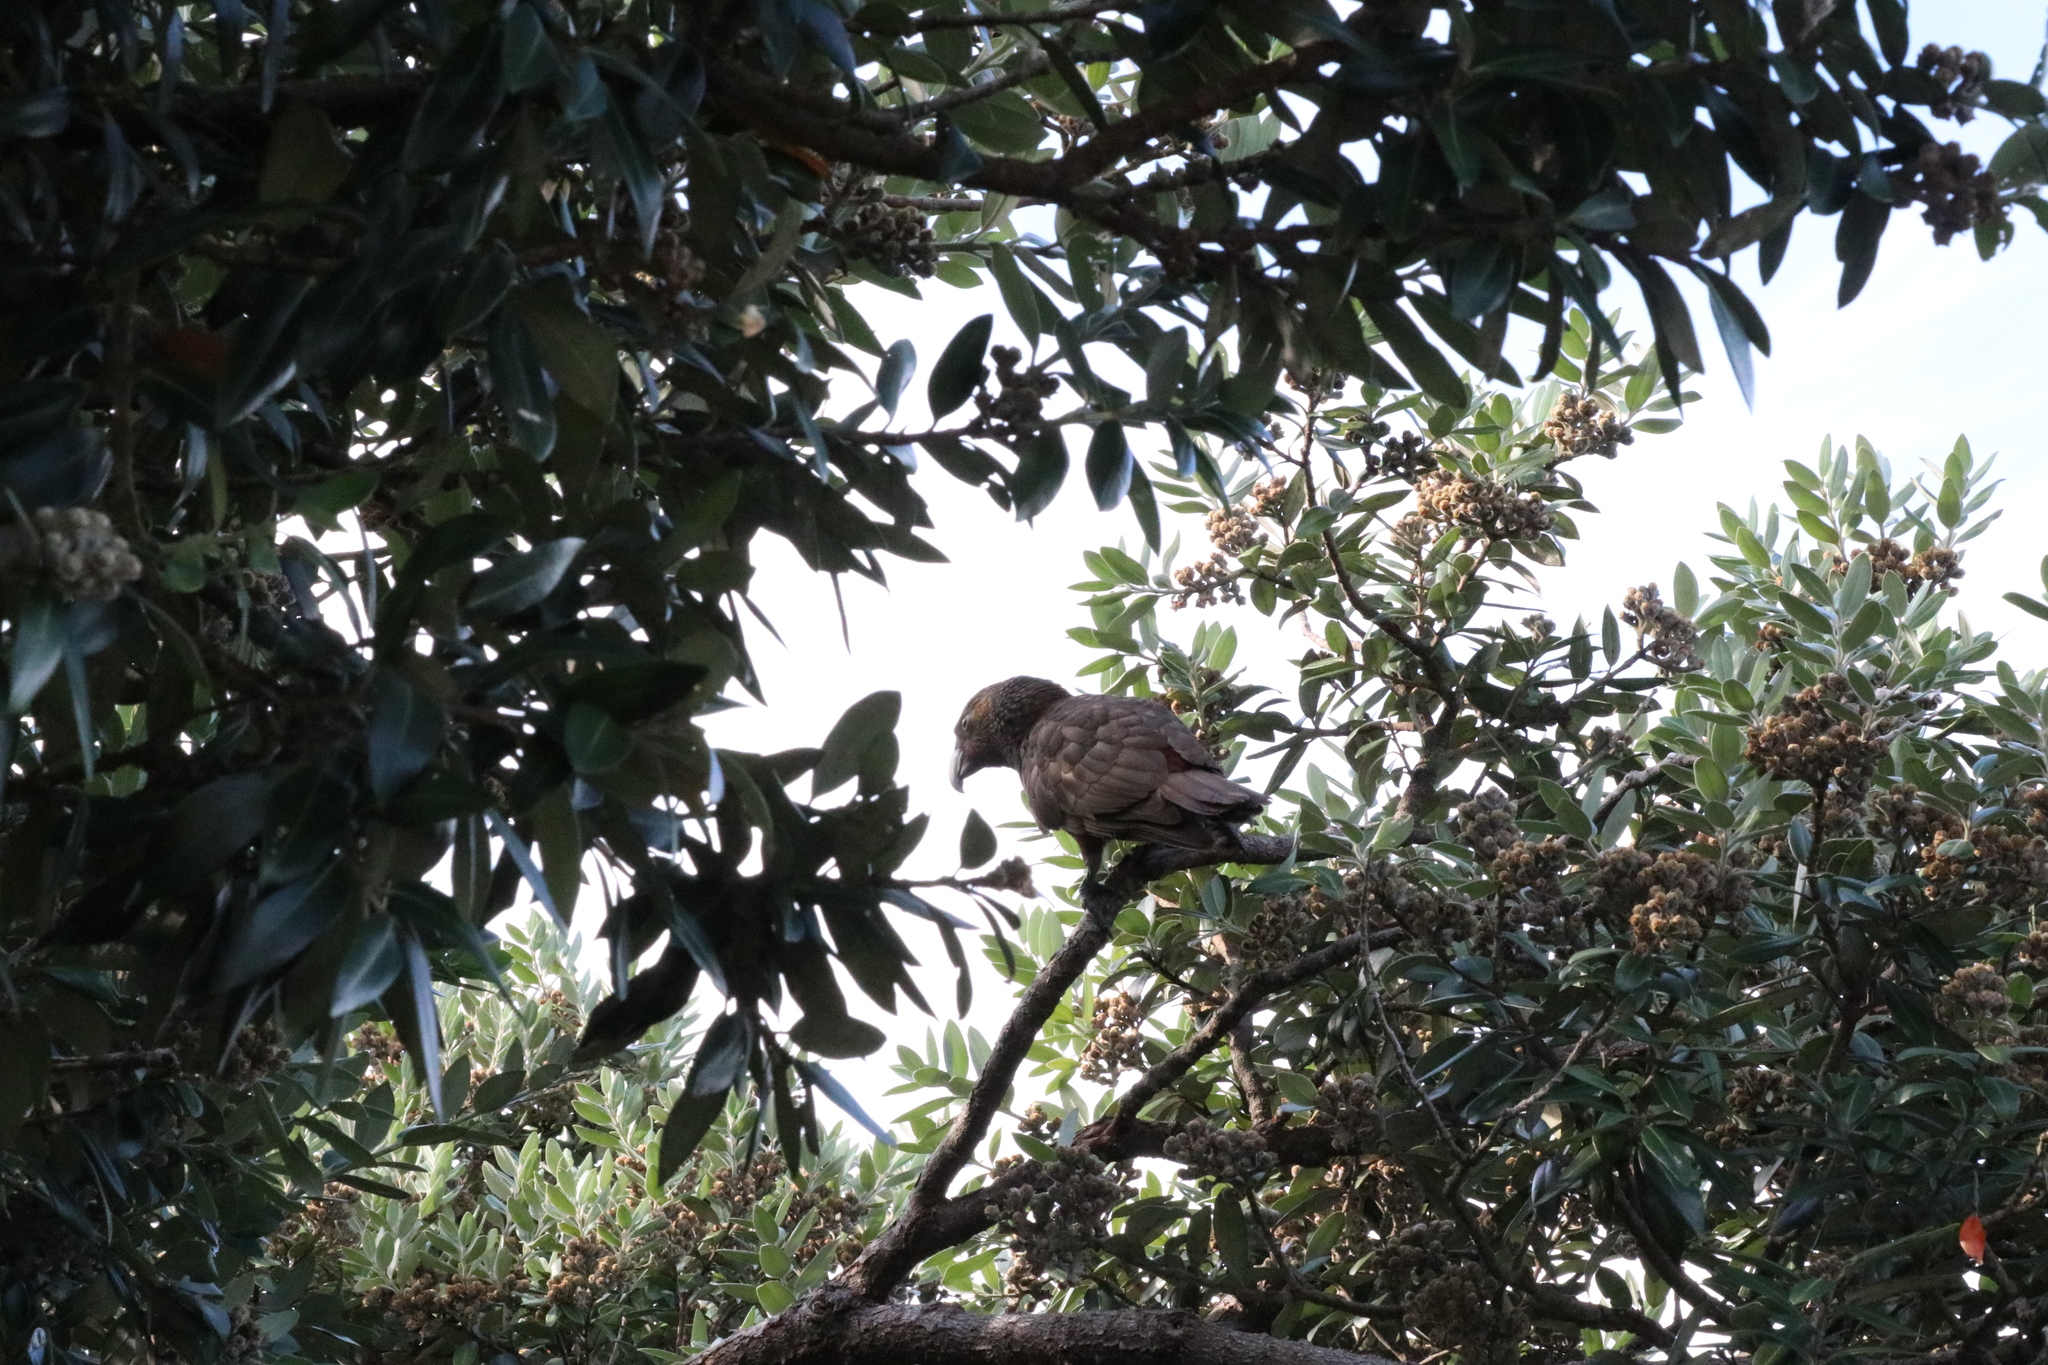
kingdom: Animalia
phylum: Chordata
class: Aves
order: Psittaciformes
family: Psittacidae
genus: Nestor
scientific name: Nestor meridionalis
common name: New zealand kaka
